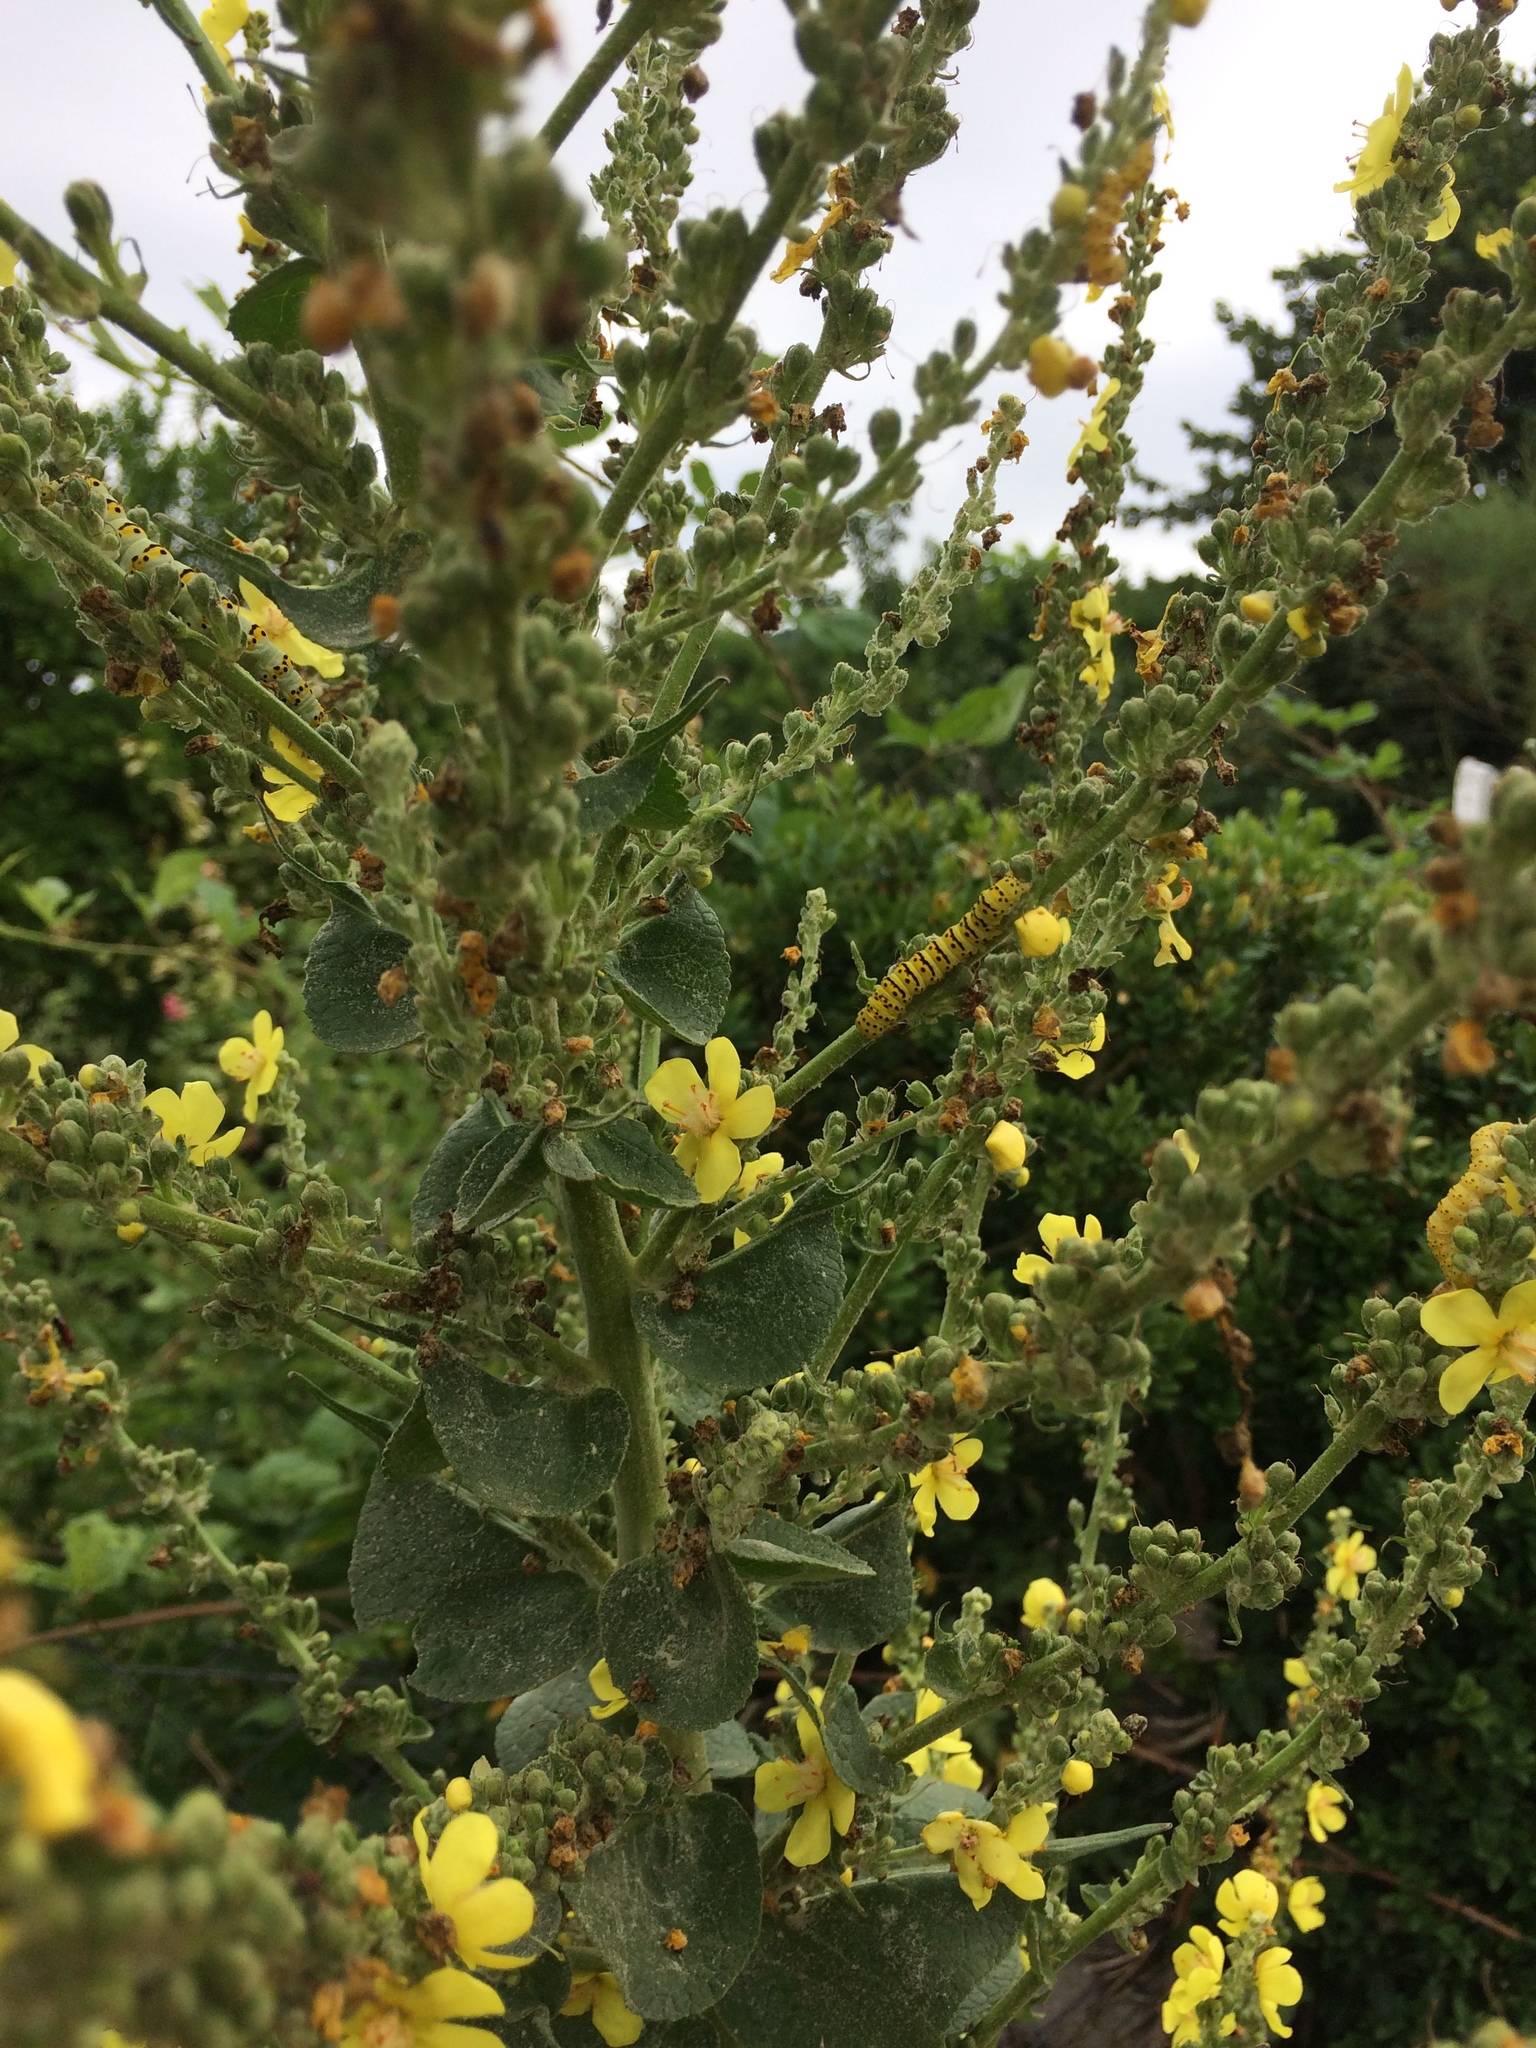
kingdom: Animalia
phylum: Arthropoda
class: Insecta
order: Lepidoptera
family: Noctuidae
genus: Cucullia
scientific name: Cucullia lychnitis
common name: Striped lychnis
